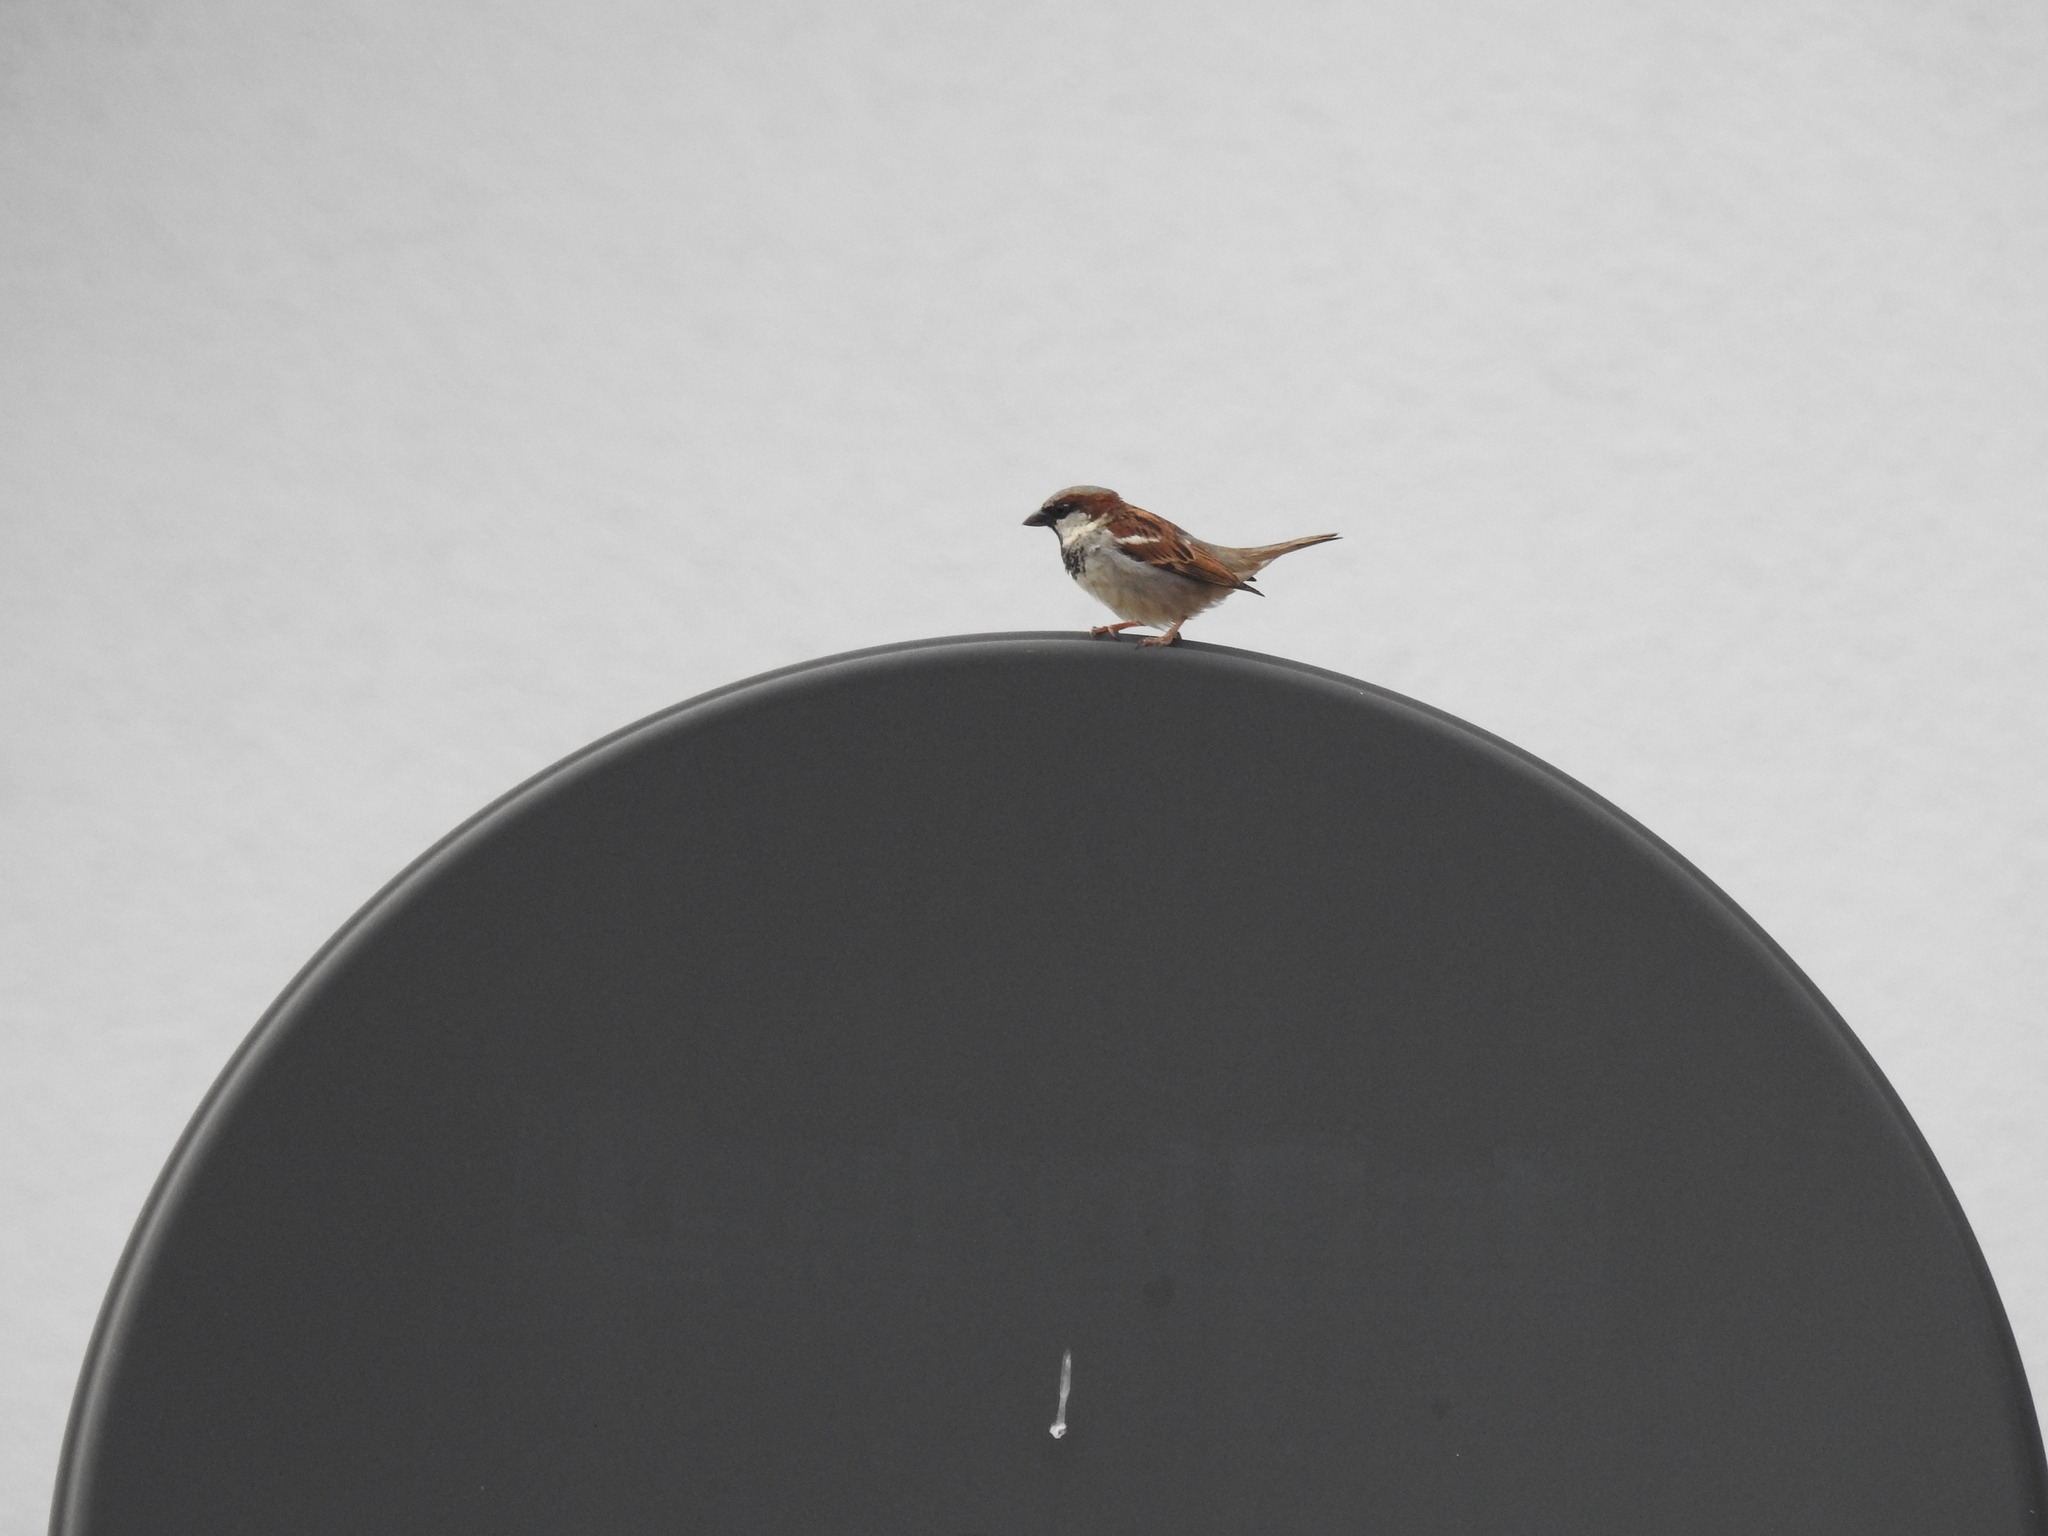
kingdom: Animalia
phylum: Chordata
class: Aves
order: Passeriformes
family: Passeridae
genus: Passer
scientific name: Passer domesticus
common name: House sparrow
